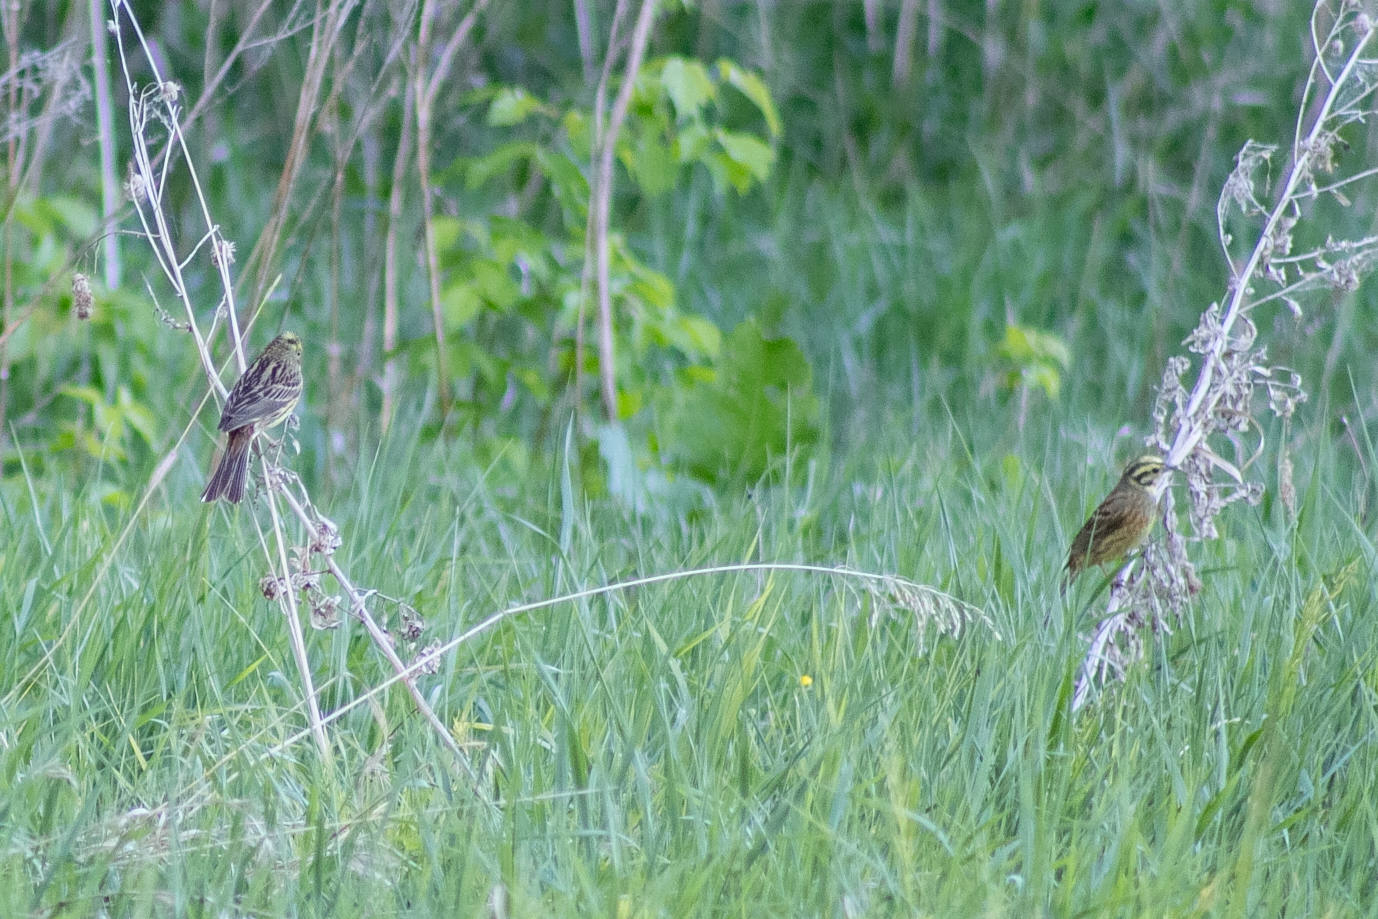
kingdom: Animalia
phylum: Chordata
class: Aves
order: Passeriformes
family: Emberizidae
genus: Emberiza
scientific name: Emberiza citrinella
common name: Yellowhammer
